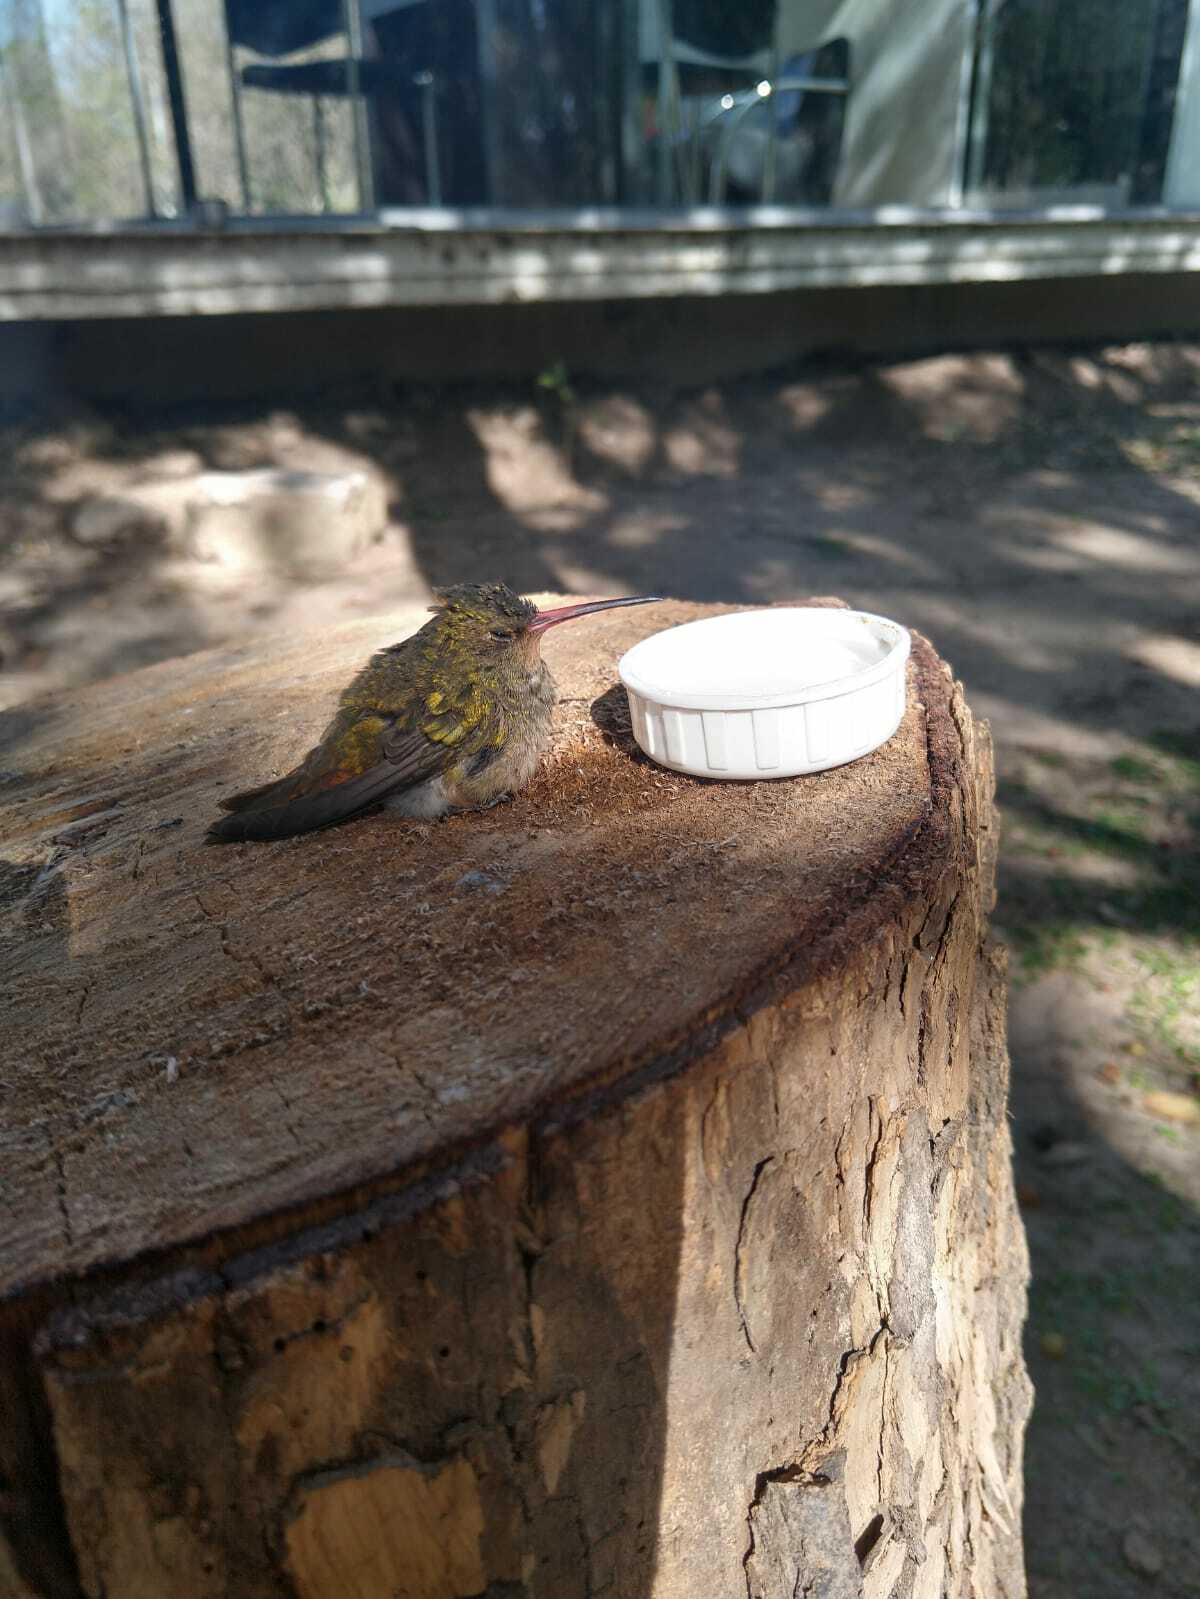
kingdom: Animalia
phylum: Chordata
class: Aves
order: Apodiformes
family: Trochilidae
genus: Hylocharis
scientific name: Hylocharis chrysura
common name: Gilded sapphire
